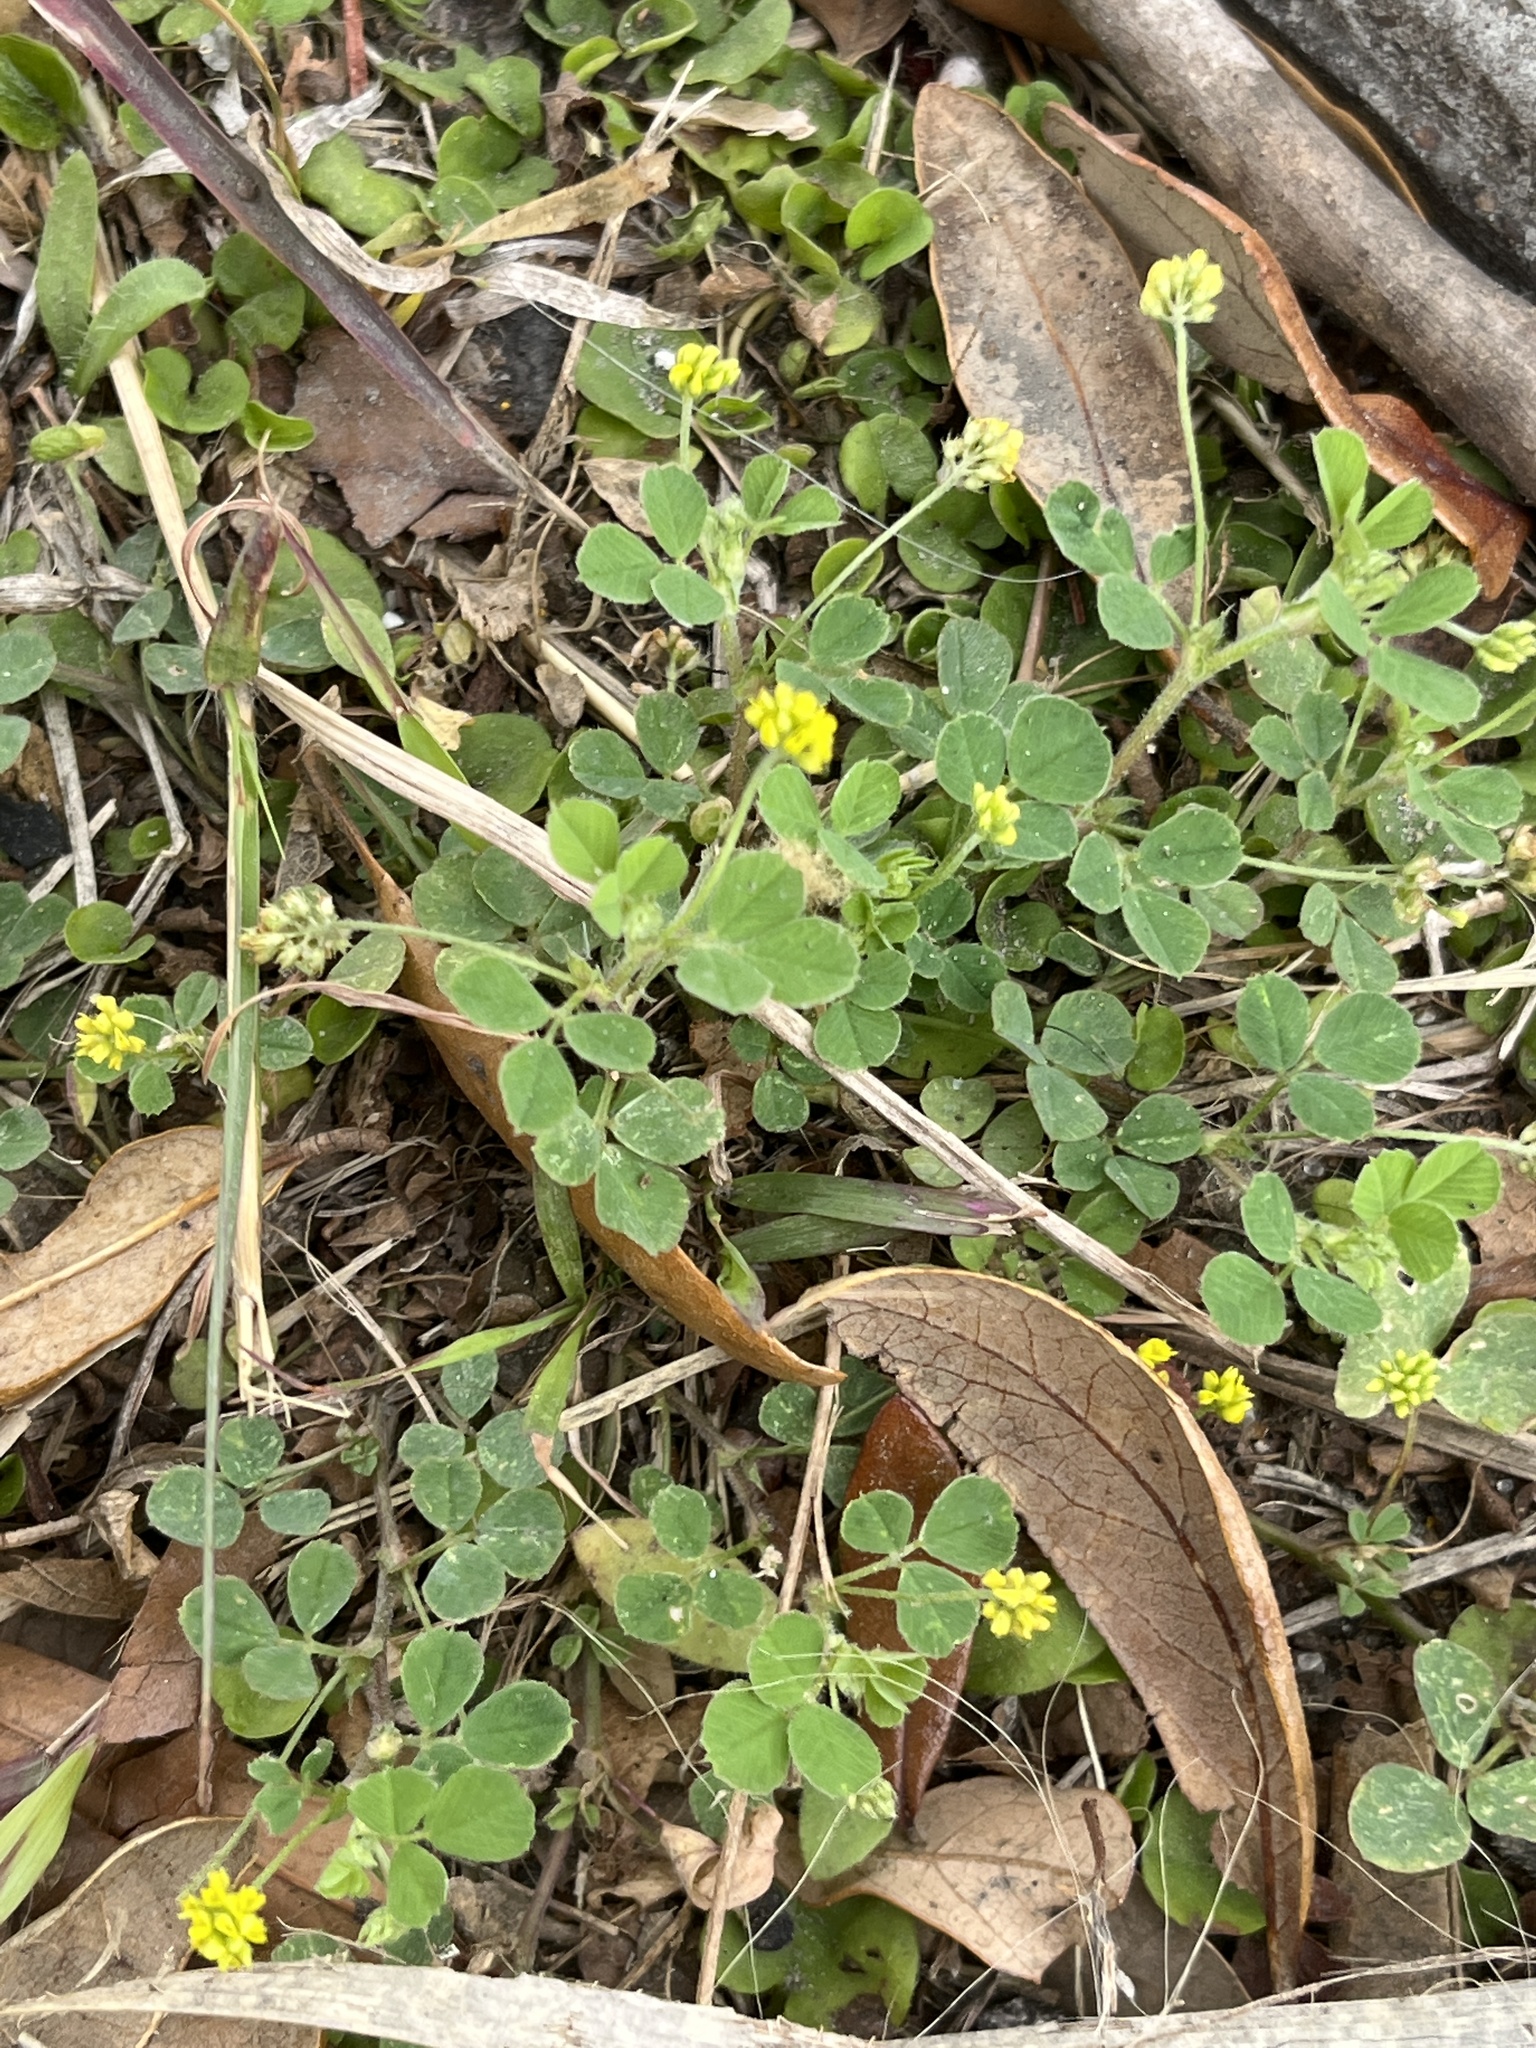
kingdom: Plantae
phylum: Tracheophyta
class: Magnoliopsida
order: Fabales
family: Fabaceae
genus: Medicago
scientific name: Medicago lupulina
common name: Black medick
